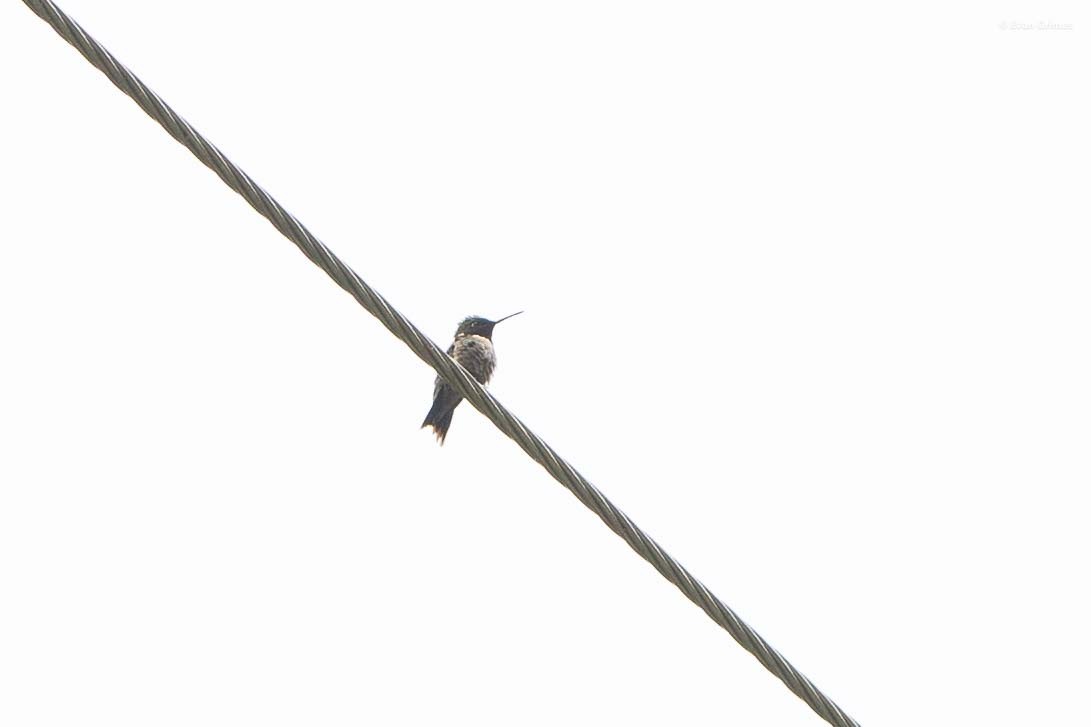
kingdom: Animalia
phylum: Chordata
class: Aves
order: Apodiformes
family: Trochilidae
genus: Archilochus
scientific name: Archilochus colubris
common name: Ruby-throated hummingbird
